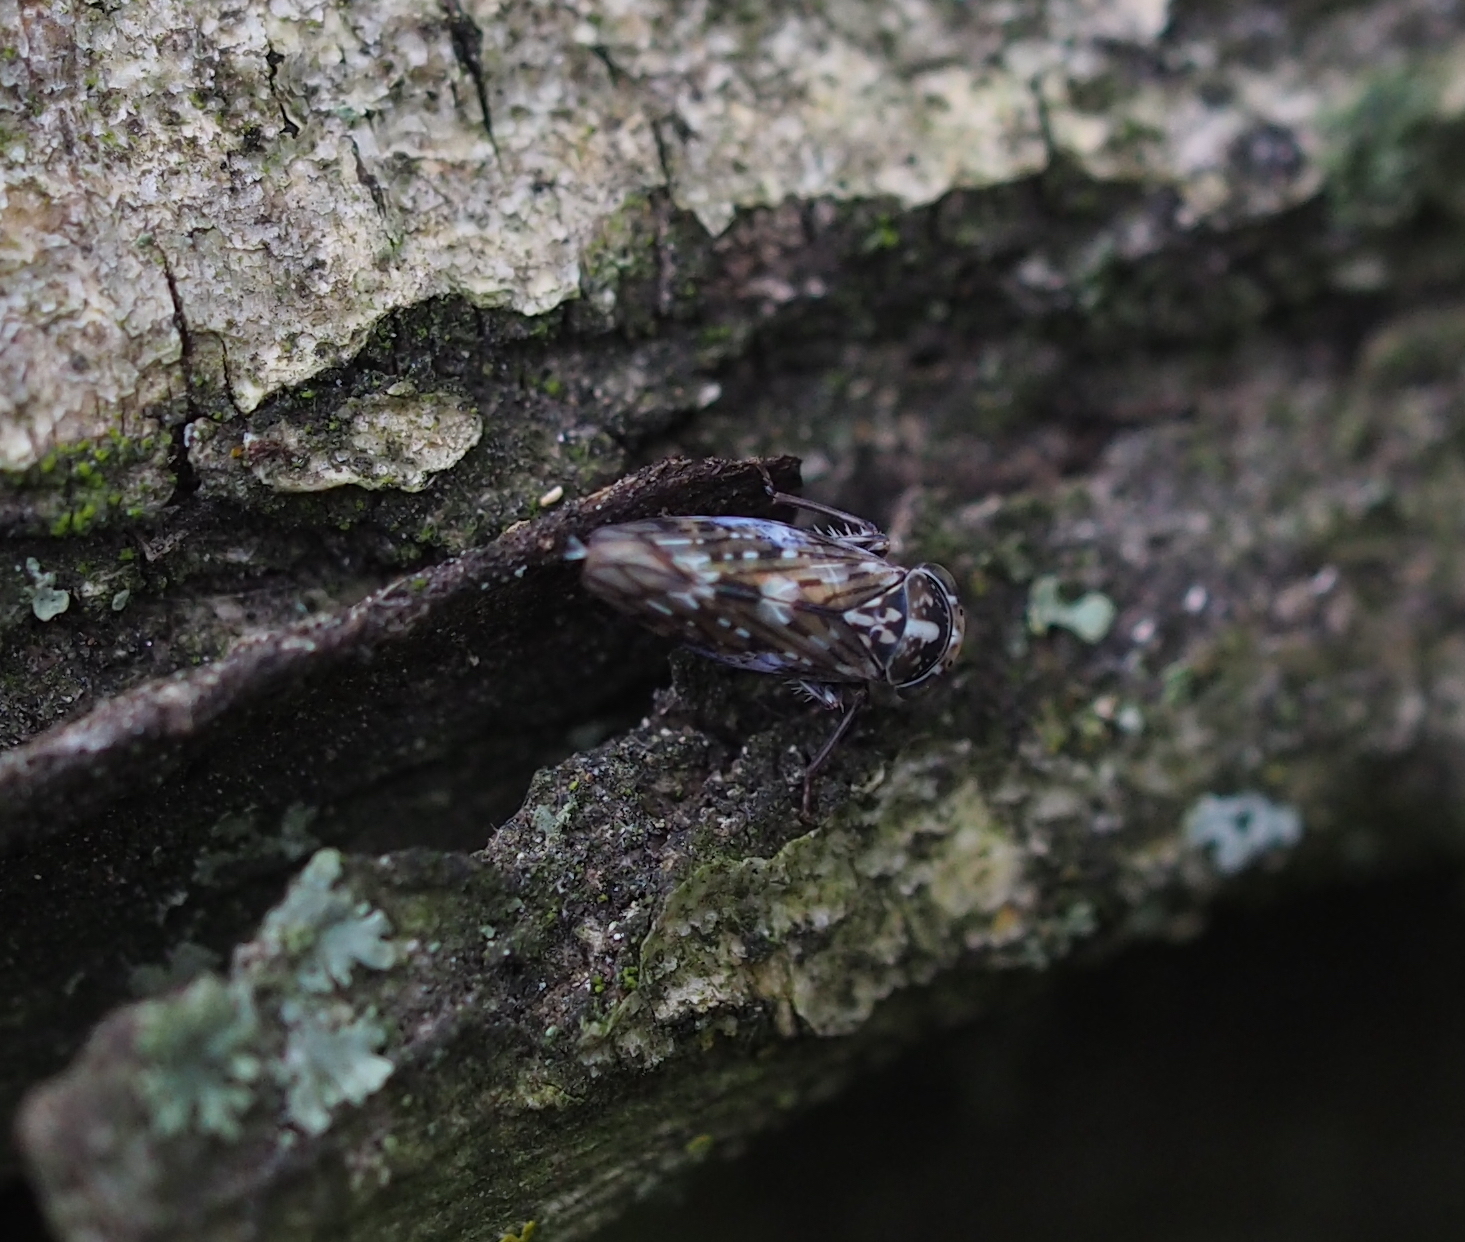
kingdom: Animalia
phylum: Arthropoda
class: Insecta
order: Hemiptera
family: Cicadellidae
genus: Metidiocerus
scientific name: Metidiocerus poecilus
